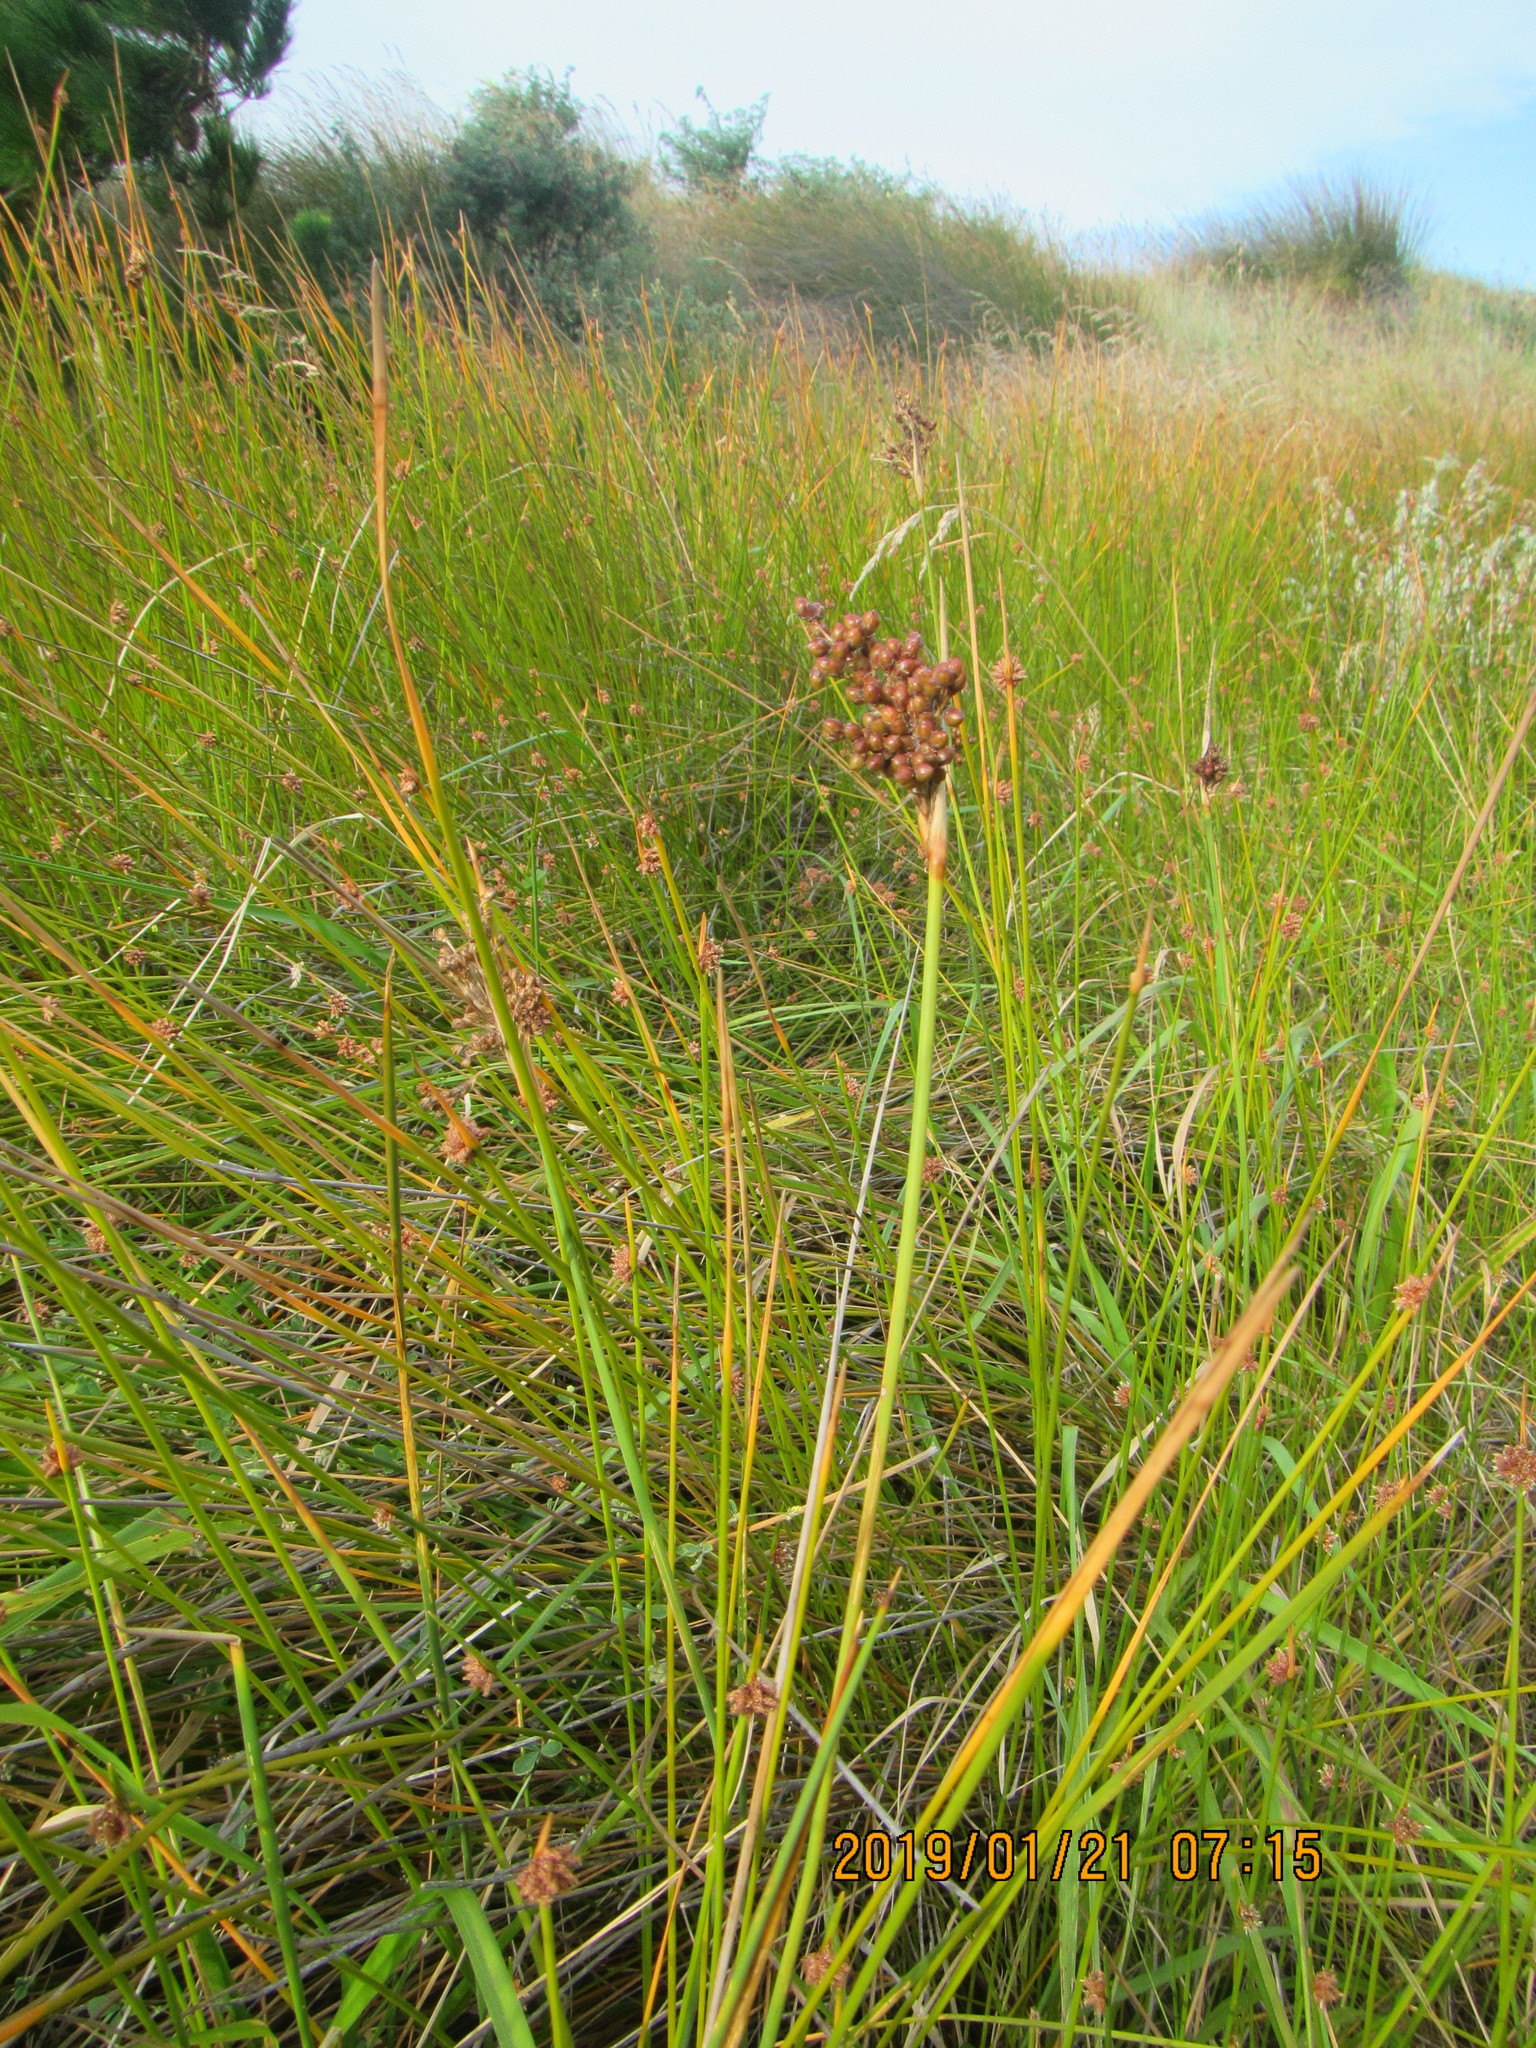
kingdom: Plantae
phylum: Tracheophyta
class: Liliopsida
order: Poales
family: Juncaceae
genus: Juncus
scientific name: Juncus acutus
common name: Sharp rush
